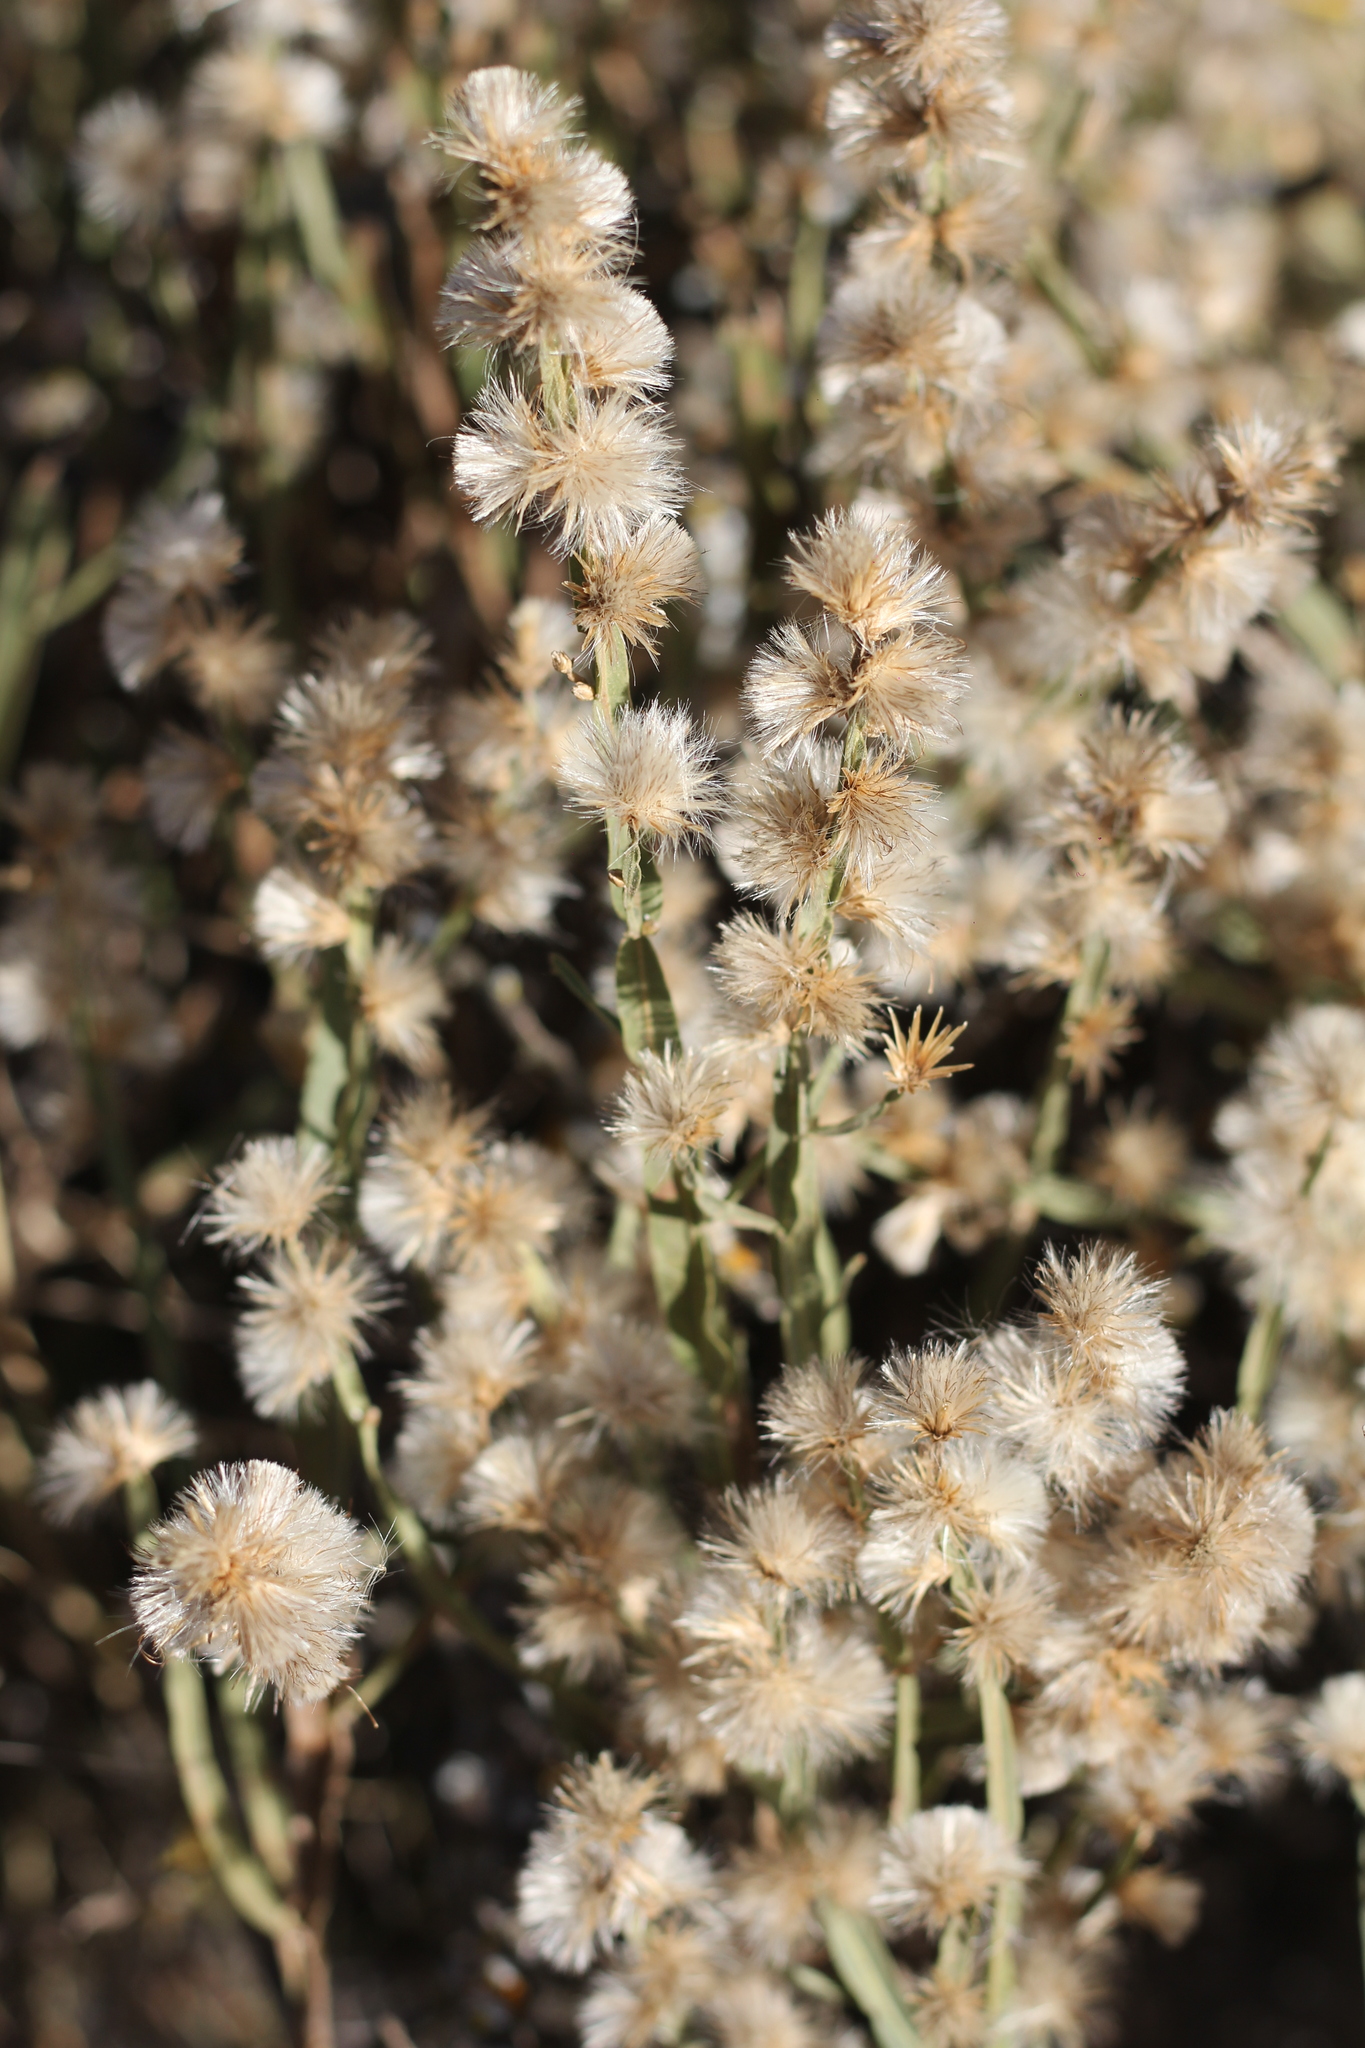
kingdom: Plantae
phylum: Tracheophyta
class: Magnoliopsida
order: Asterales
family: Asteraceae
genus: Baccharis
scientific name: Baccharis crispa
